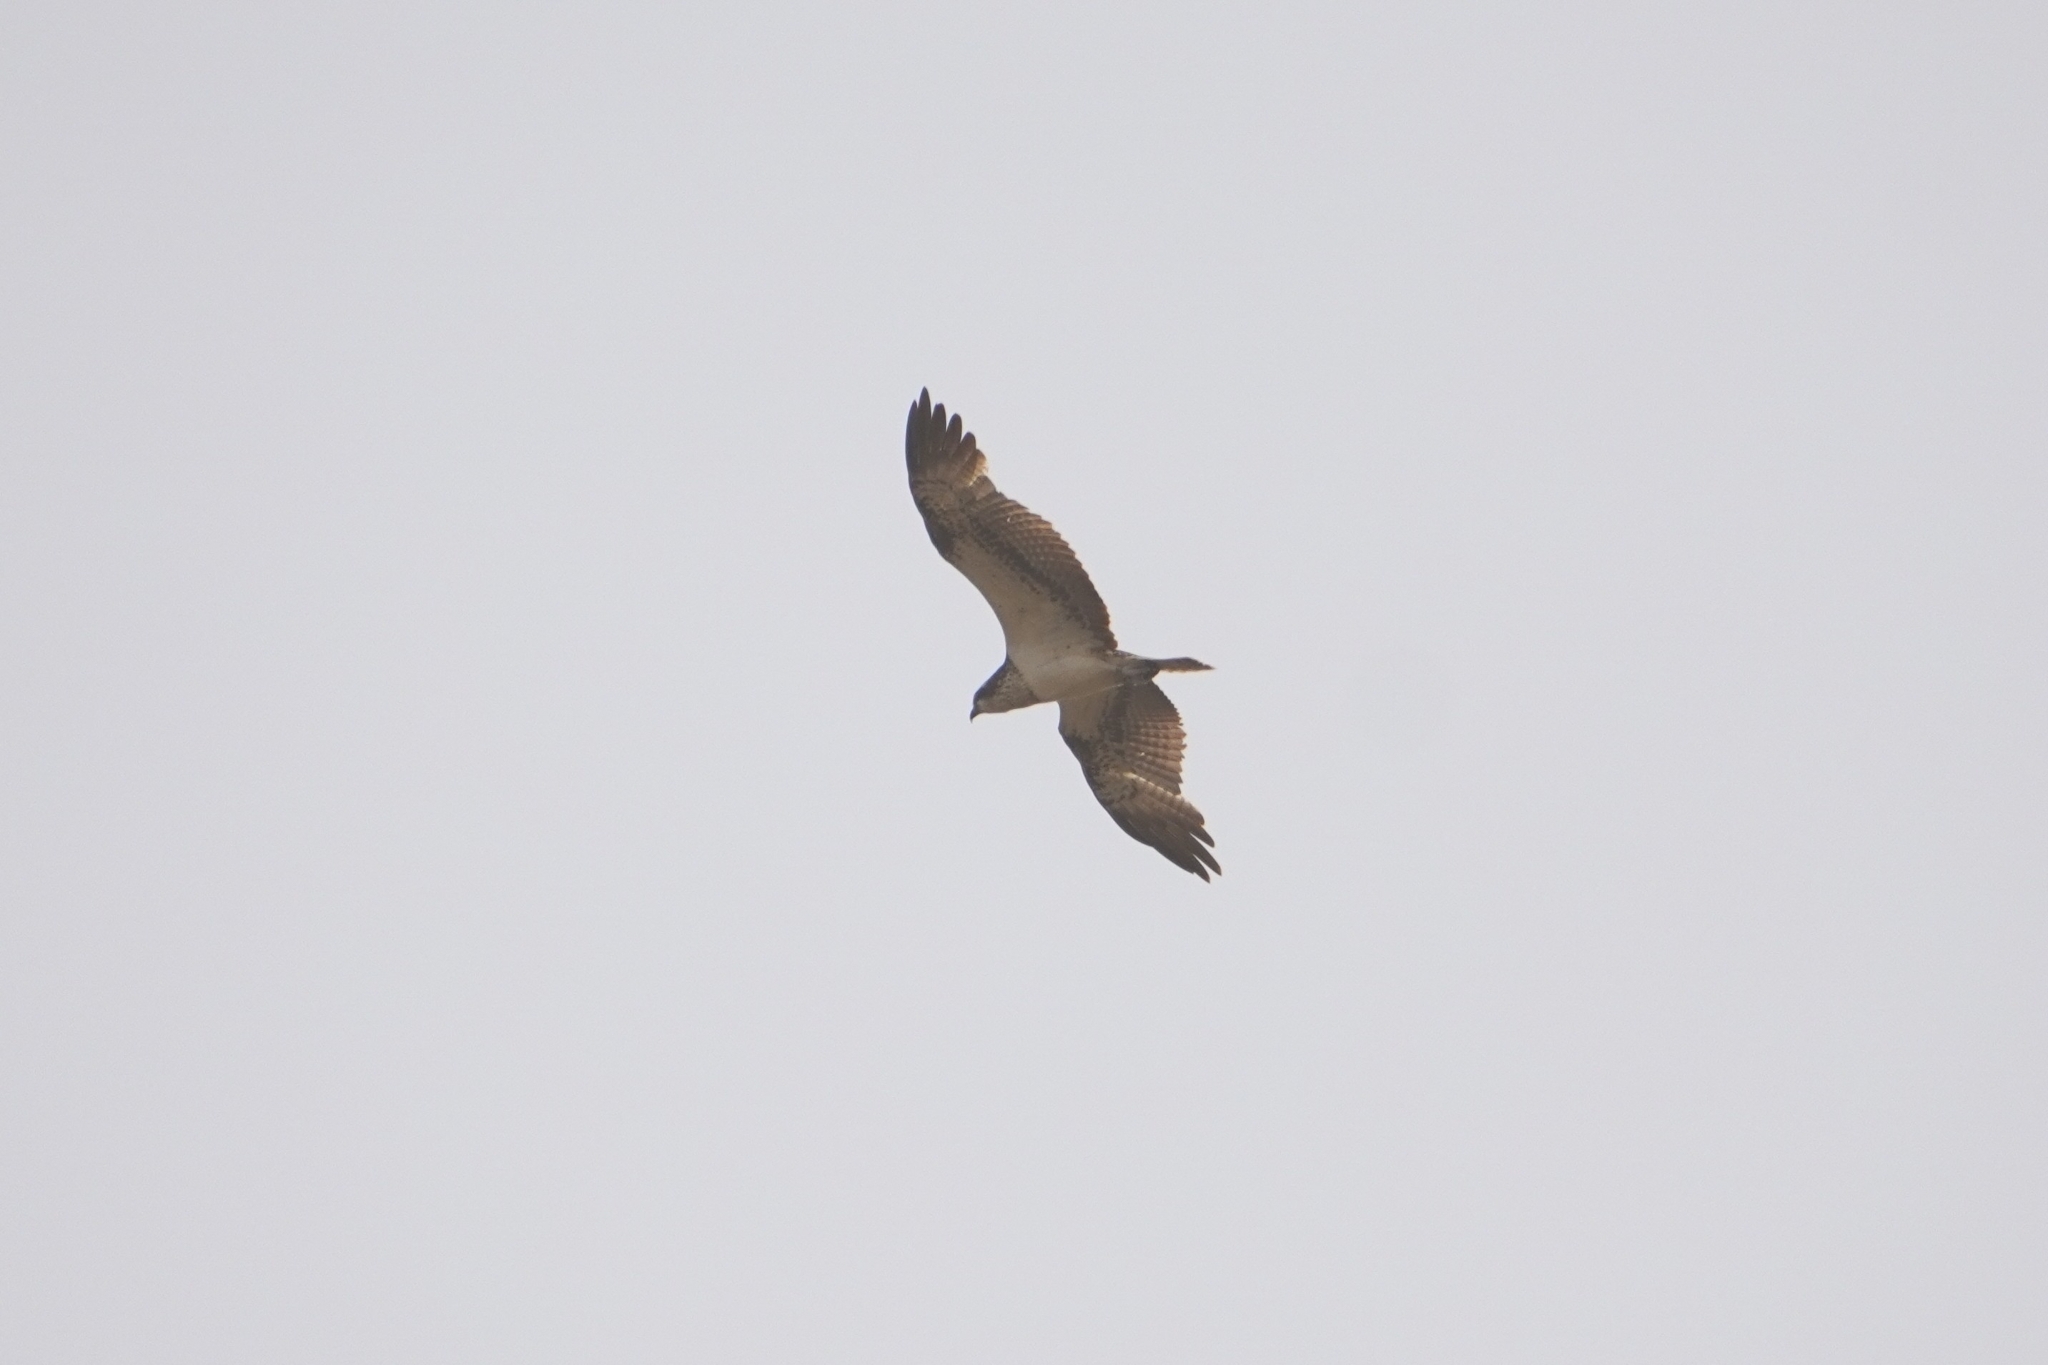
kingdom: Animalia
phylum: Chordata
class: Aves
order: Accipitriformes
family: Pandionidae
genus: Pandion
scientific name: Pandion haliaetus
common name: Osprey
